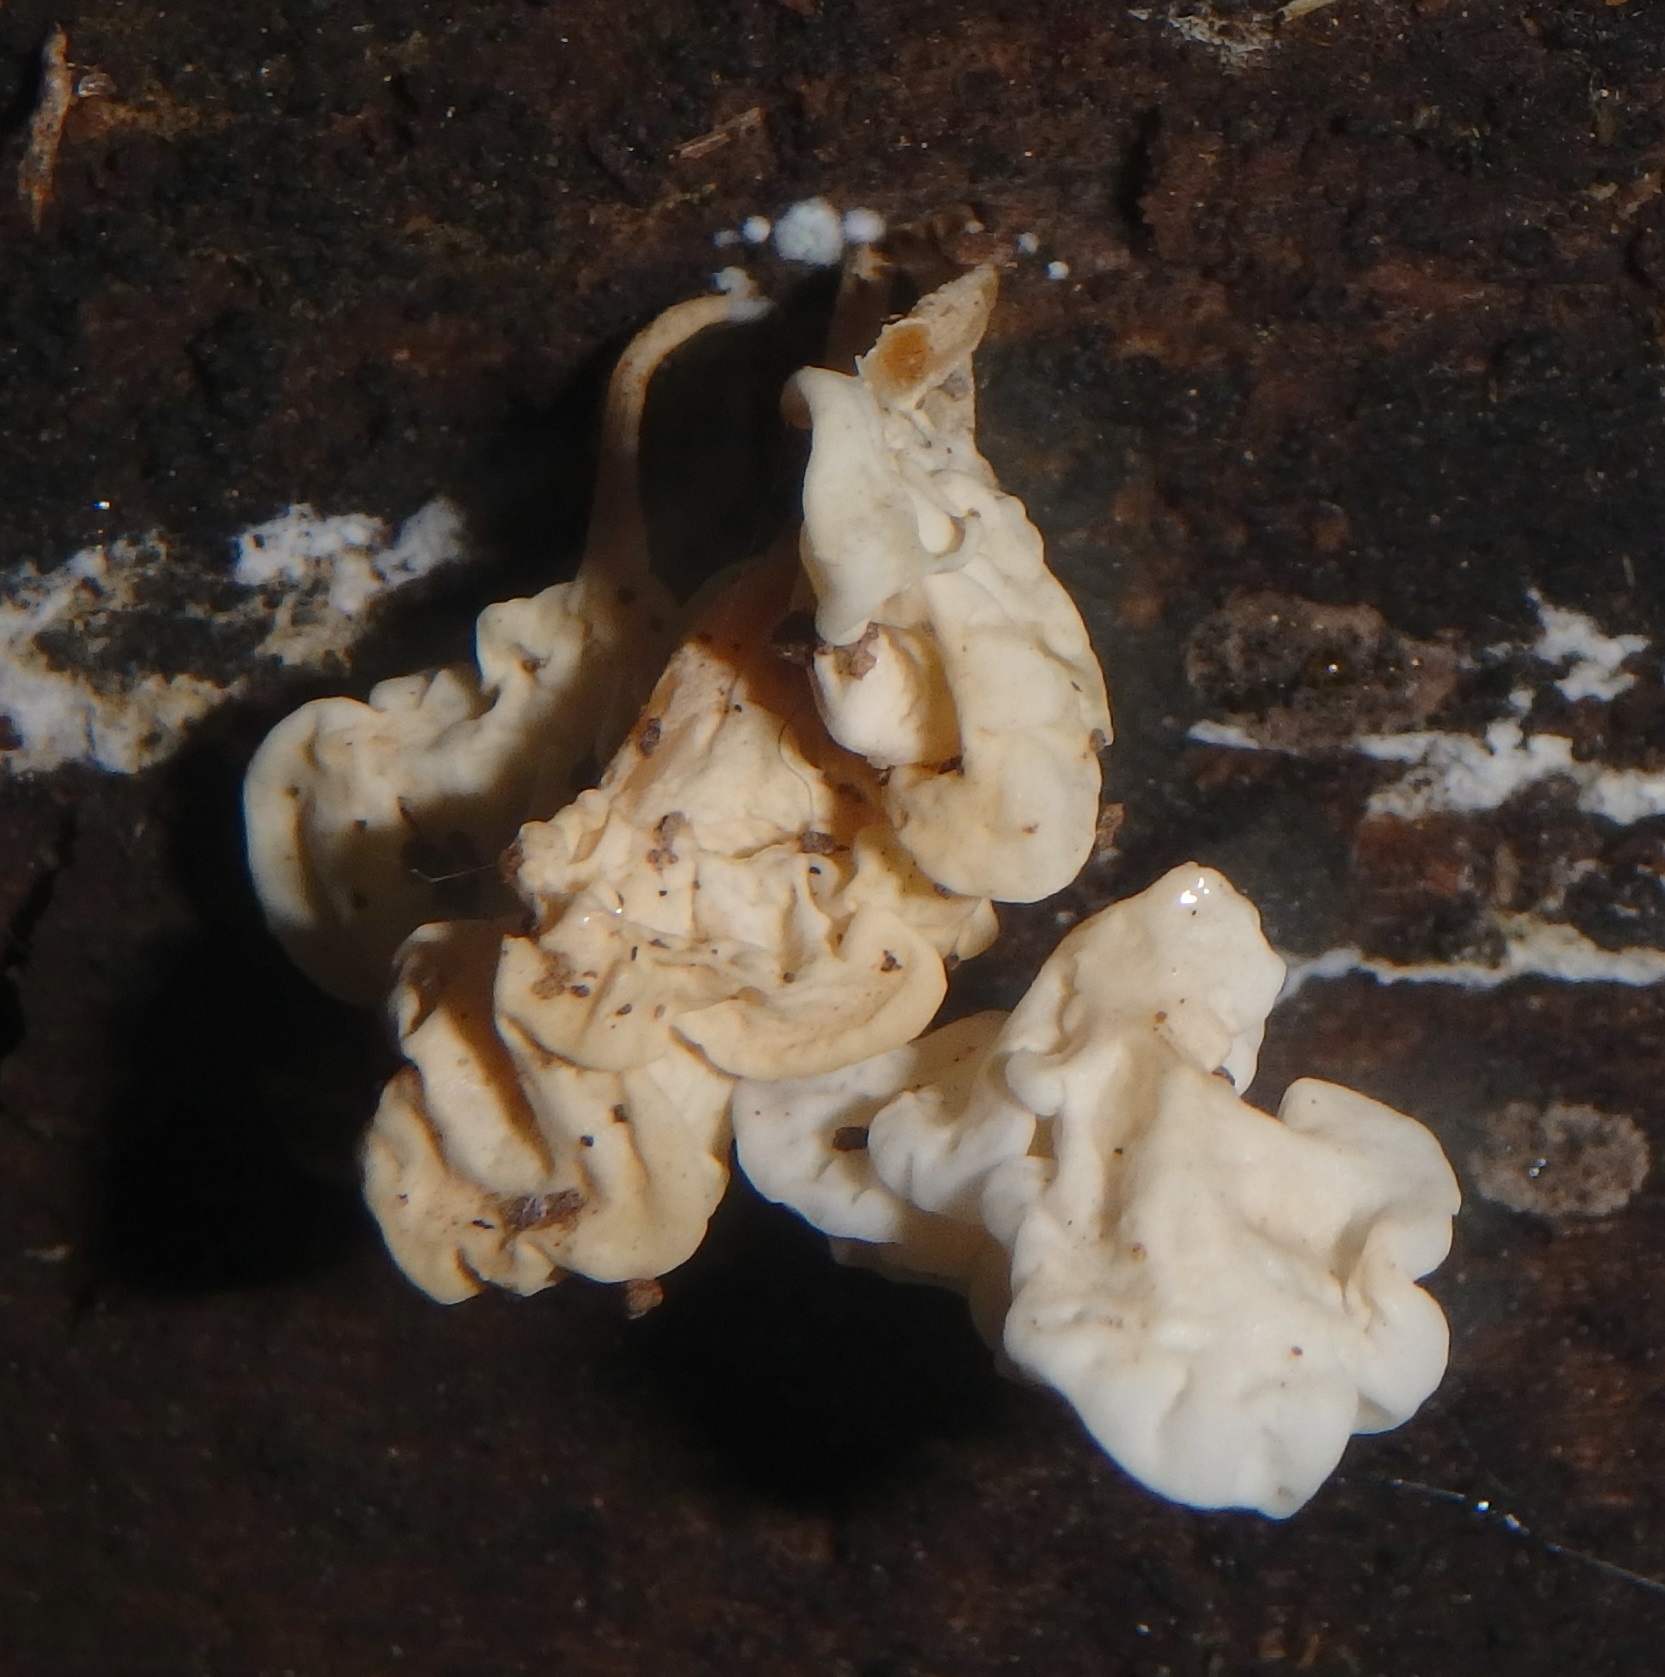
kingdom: Fungi
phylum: Basidiomycota
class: Agaricomycetes
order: Agaricales
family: Physalacriaceae
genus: Physalacria
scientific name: Physalacria inflata
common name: Bladder stalks
